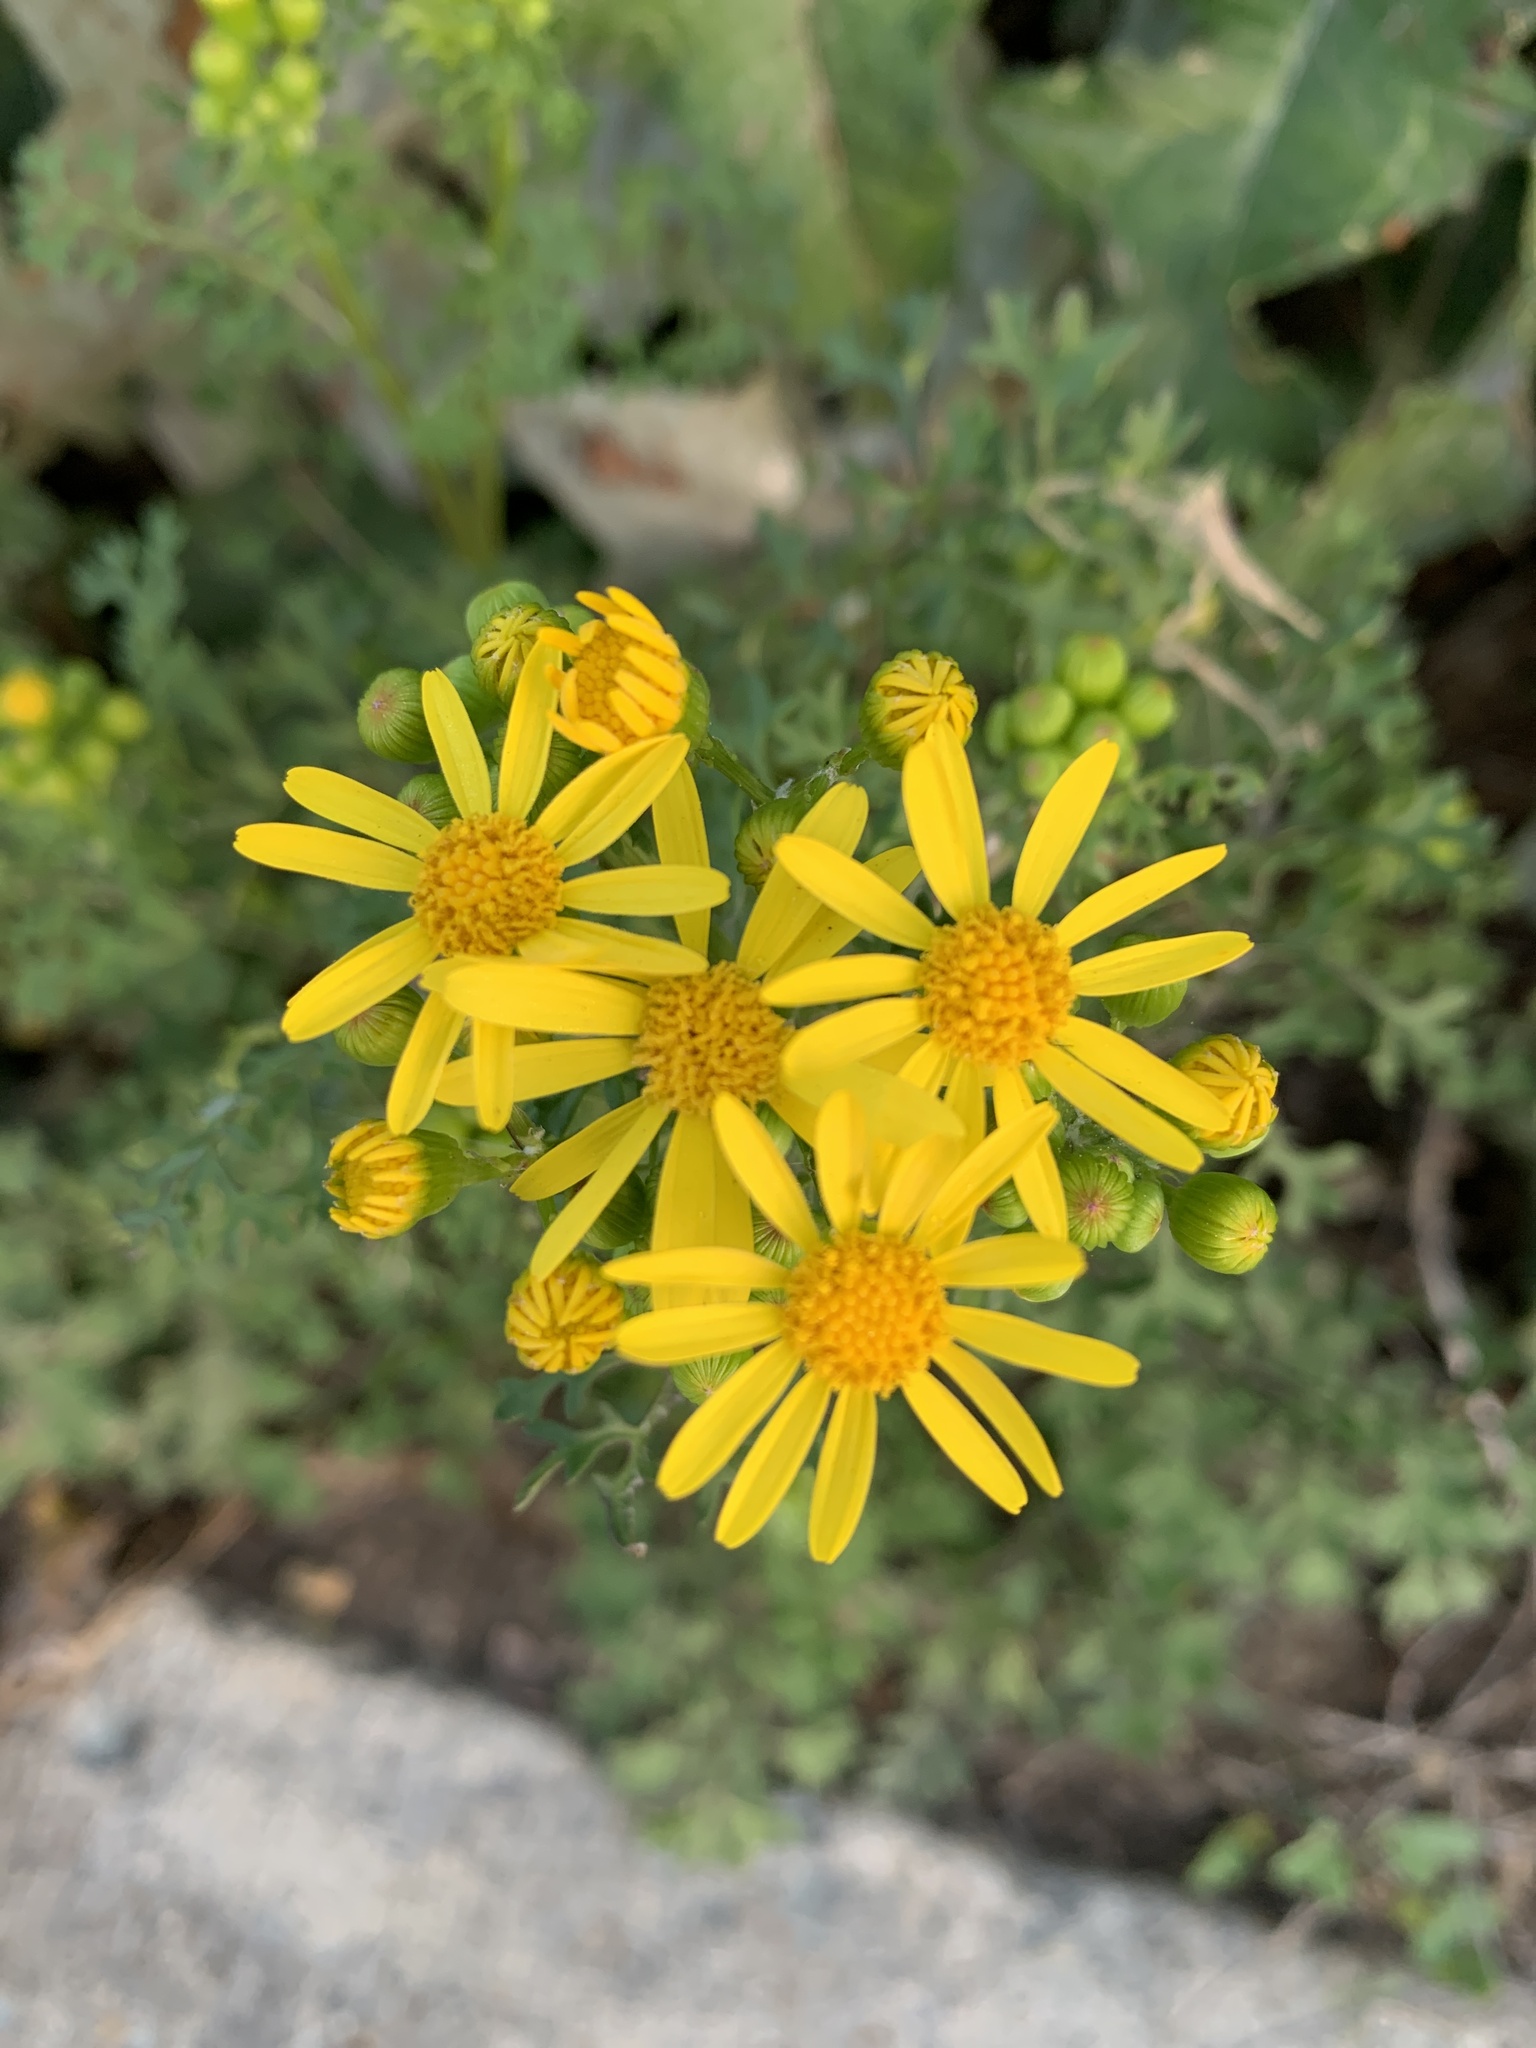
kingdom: Plantae
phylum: Tracheophyta
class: Magnoliopsida
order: Asterales
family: Asteraceae
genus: Packera
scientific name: Packera tampicana
